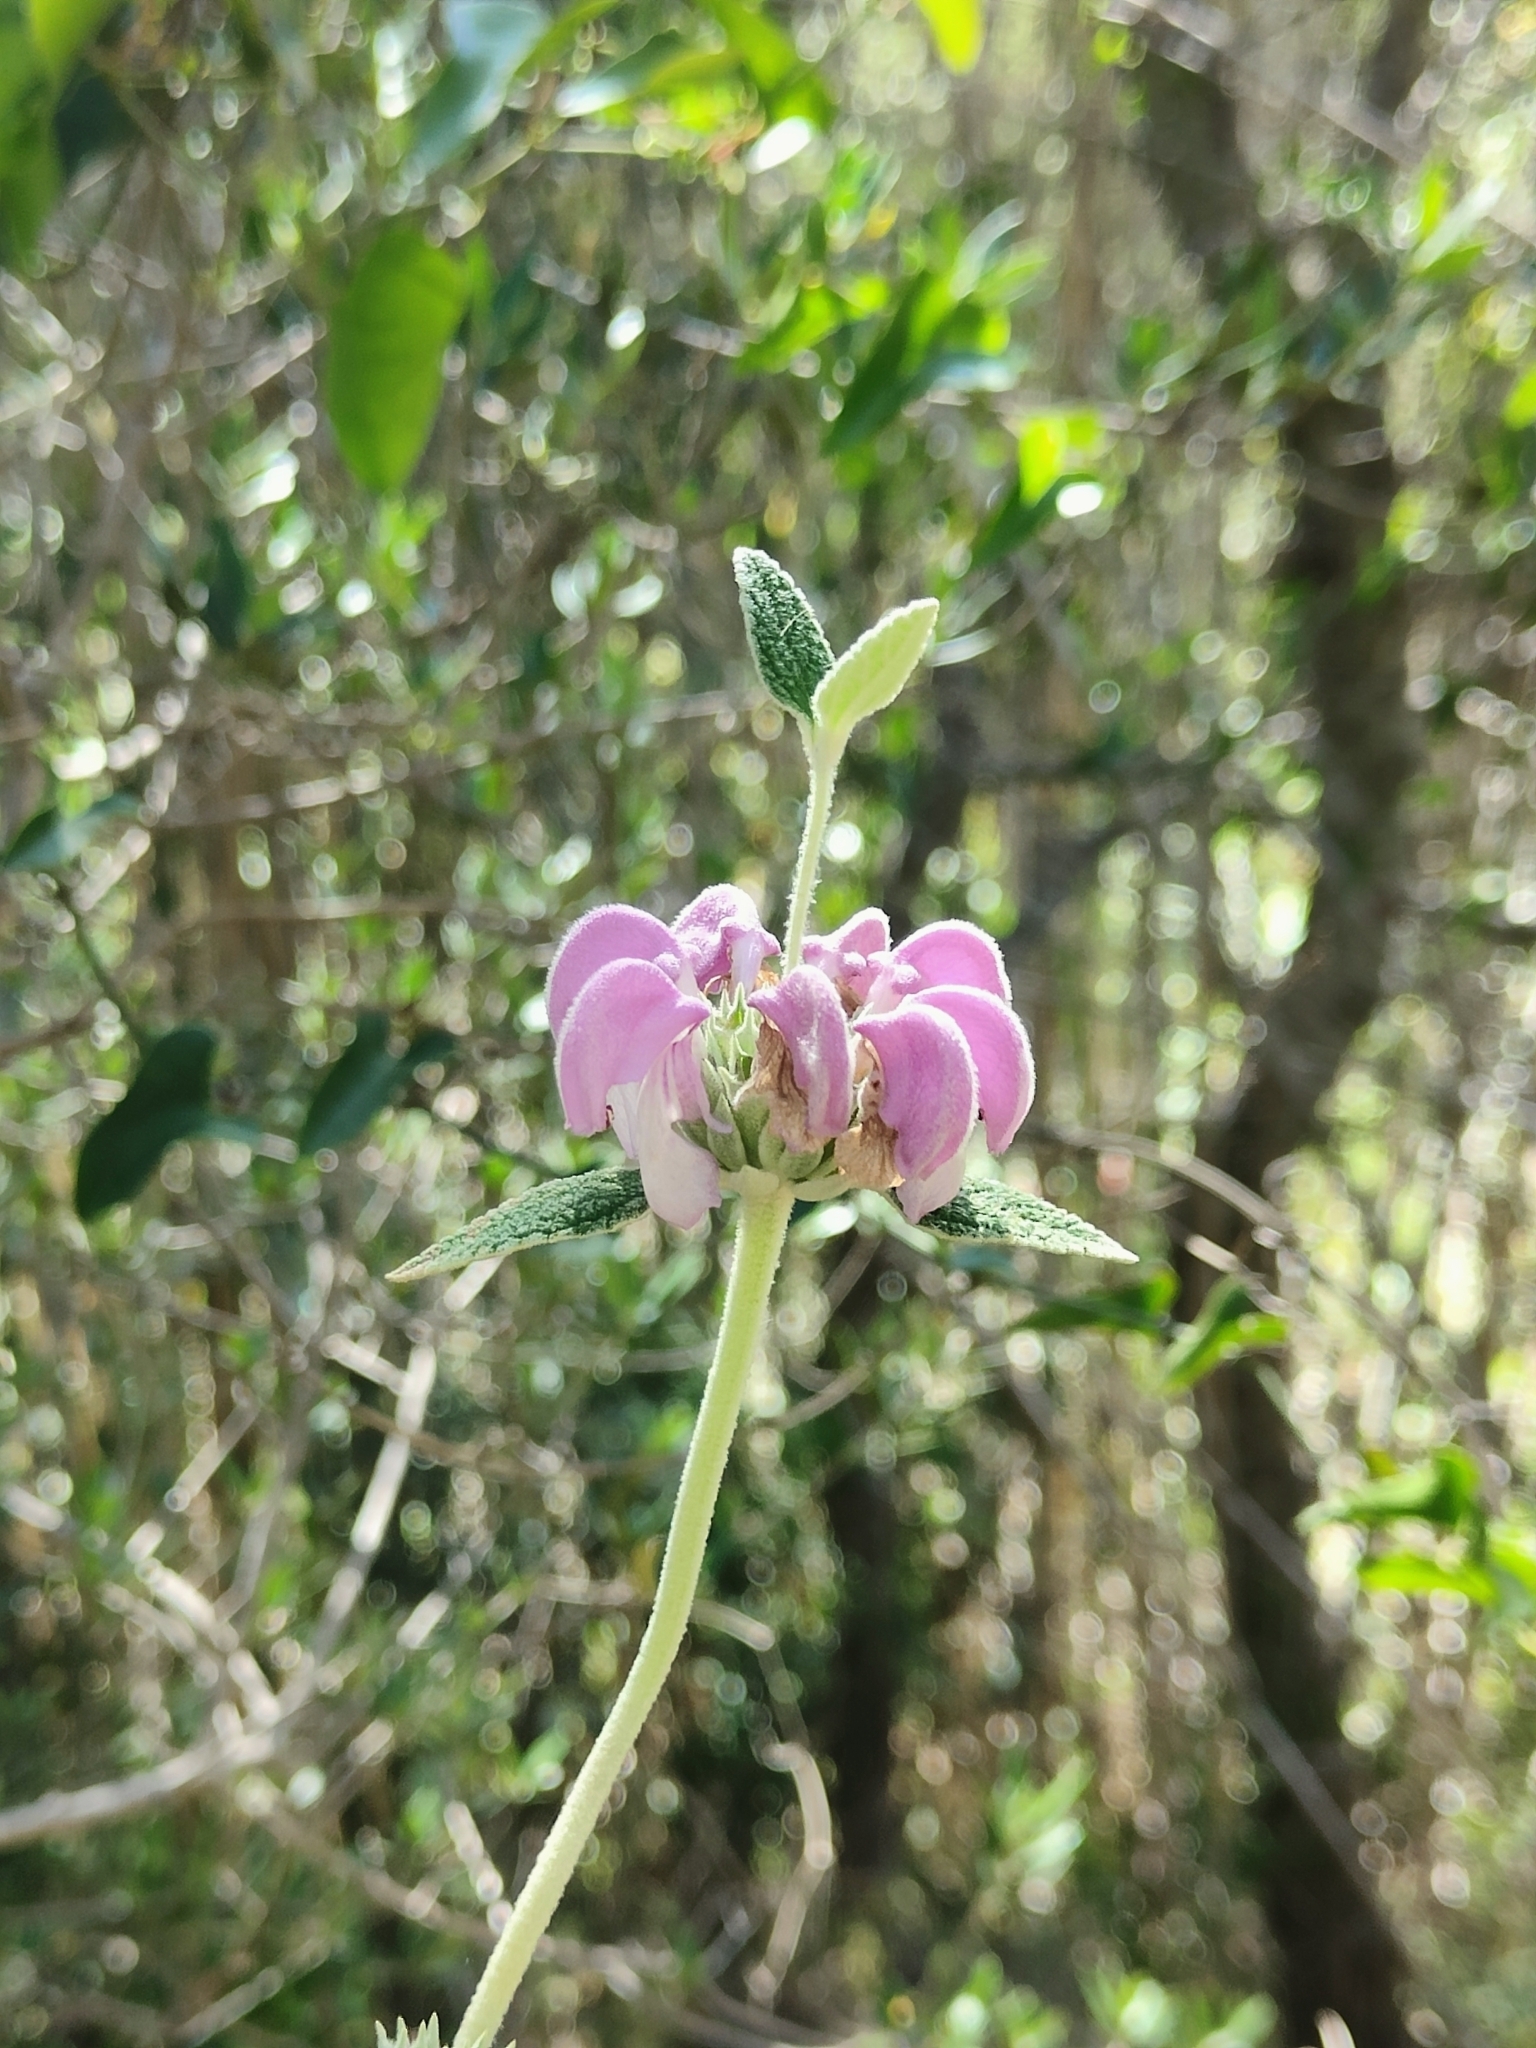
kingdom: Plantae
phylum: Tracheophyta
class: Magnoliopsida
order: Lamiales
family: Lamiaceae
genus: Phlomis
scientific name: Phlomis purpurea
